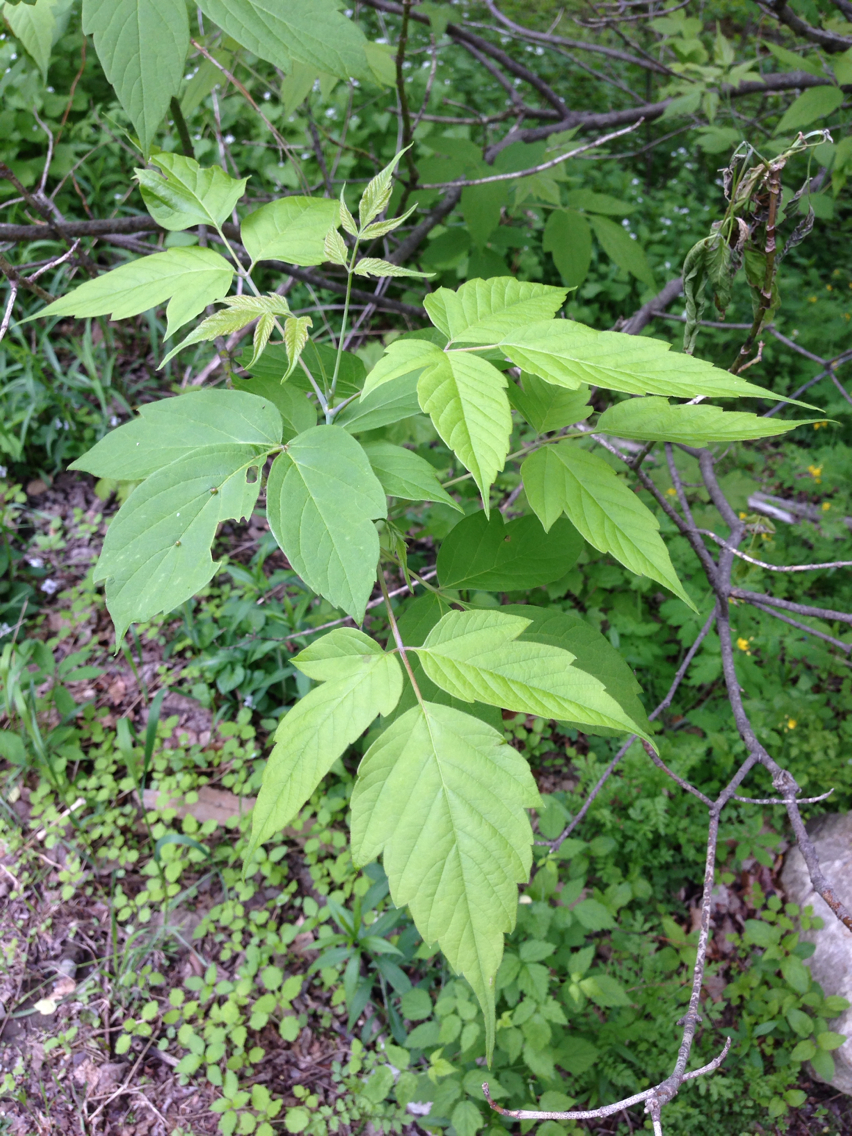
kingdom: Plantae
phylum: Tracheophyta
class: Magnoliopsida
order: Sapindales
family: Sapindaceae
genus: Acer
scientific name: Acer negundo
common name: Ashleaf maple
